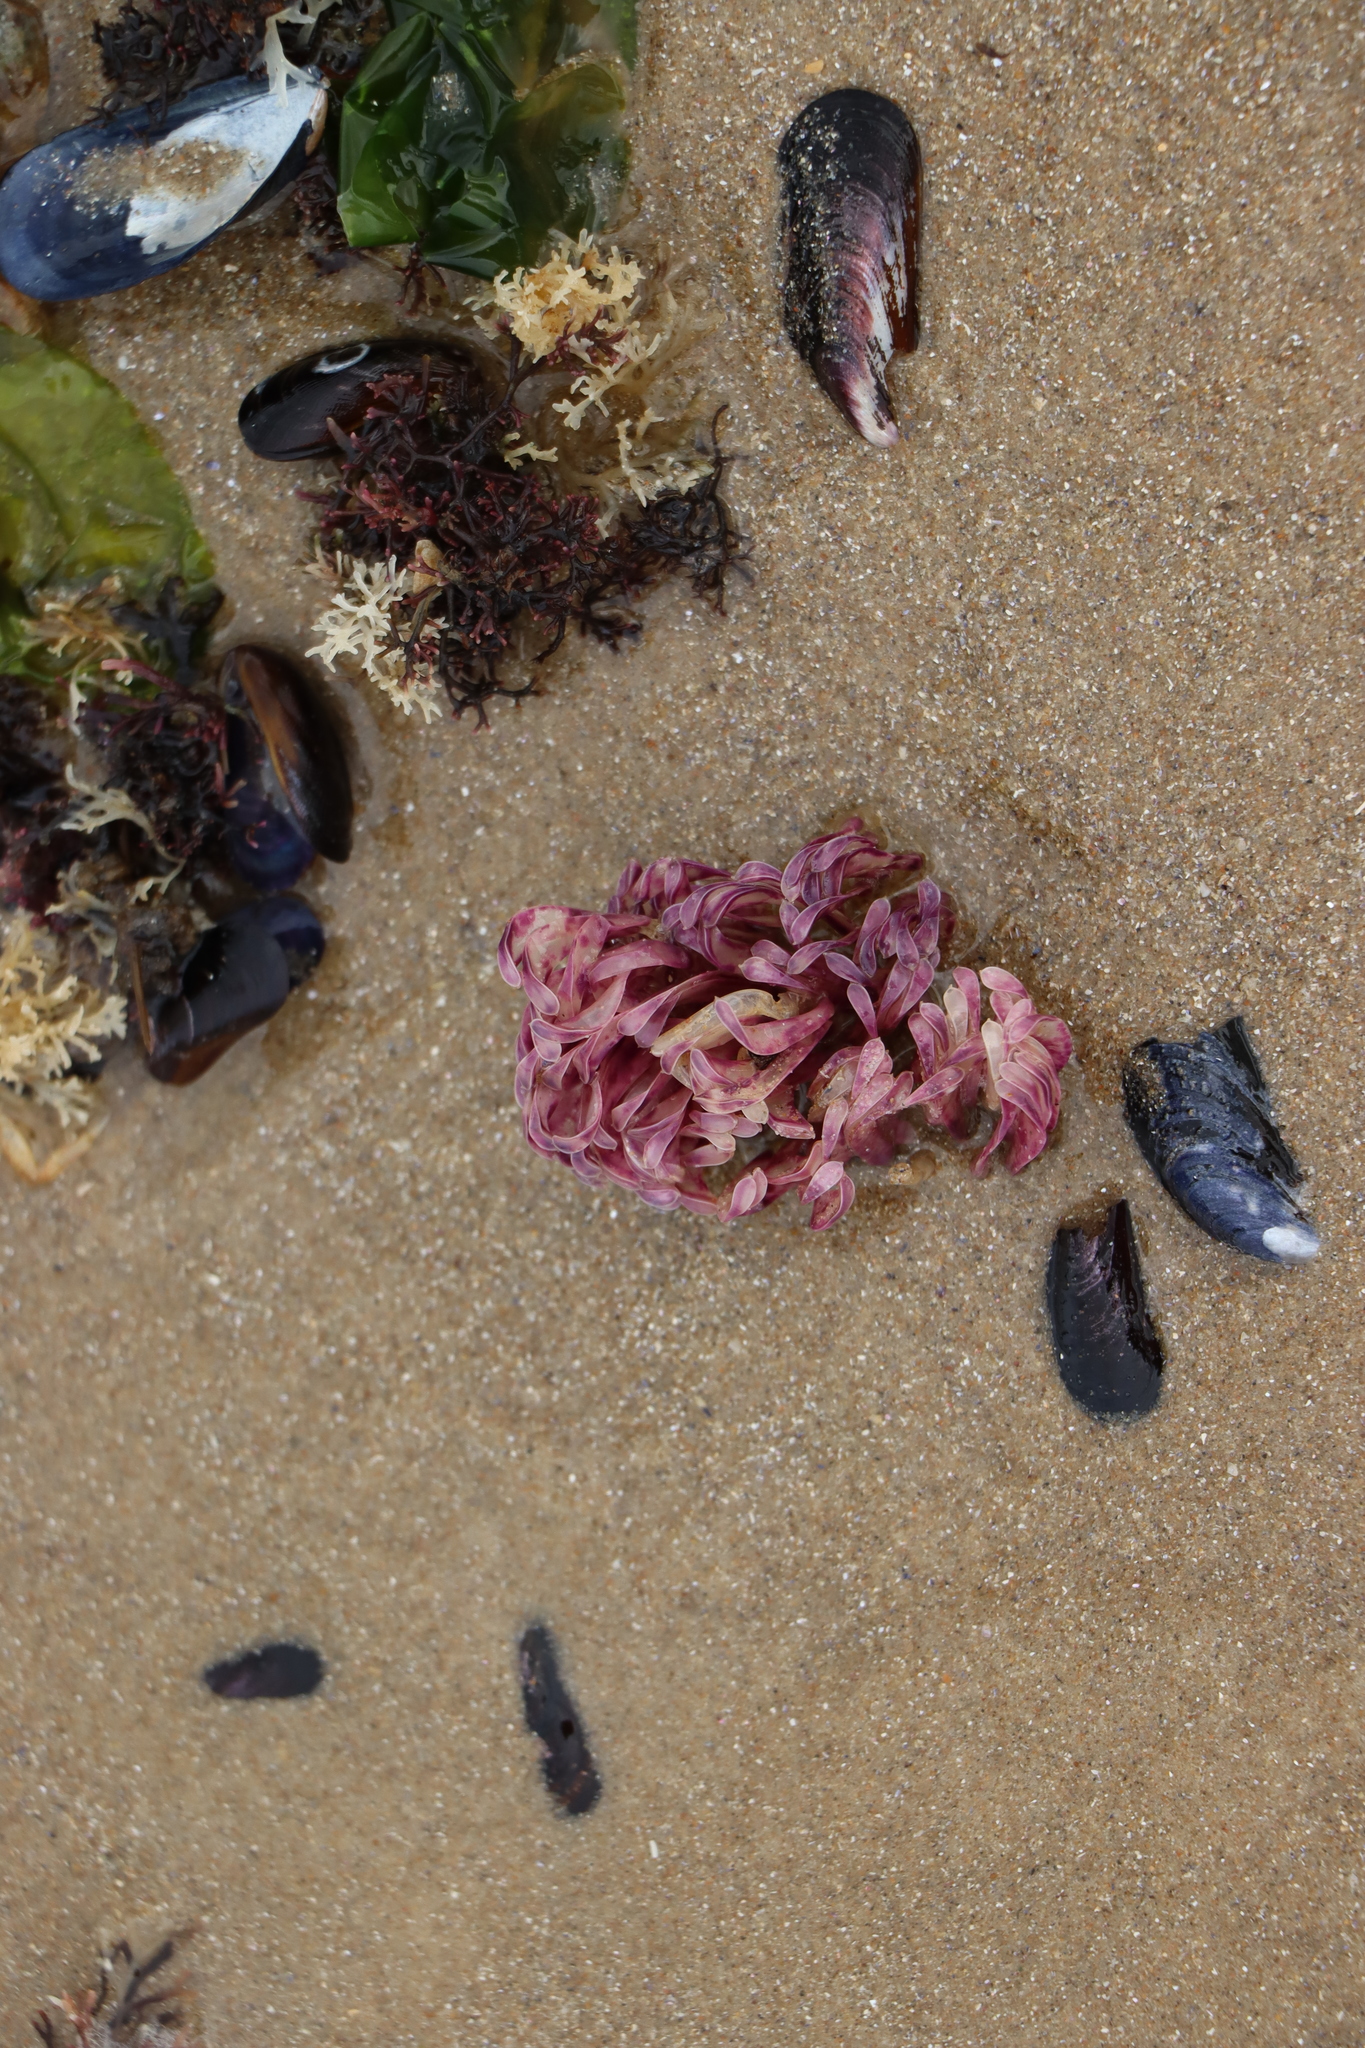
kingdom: Animalia
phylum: Mollusca
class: Gastropoda
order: Neogastropoda
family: Muricidae
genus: Rapana
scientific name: Rapana venosa
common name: Veined rapa whelk
